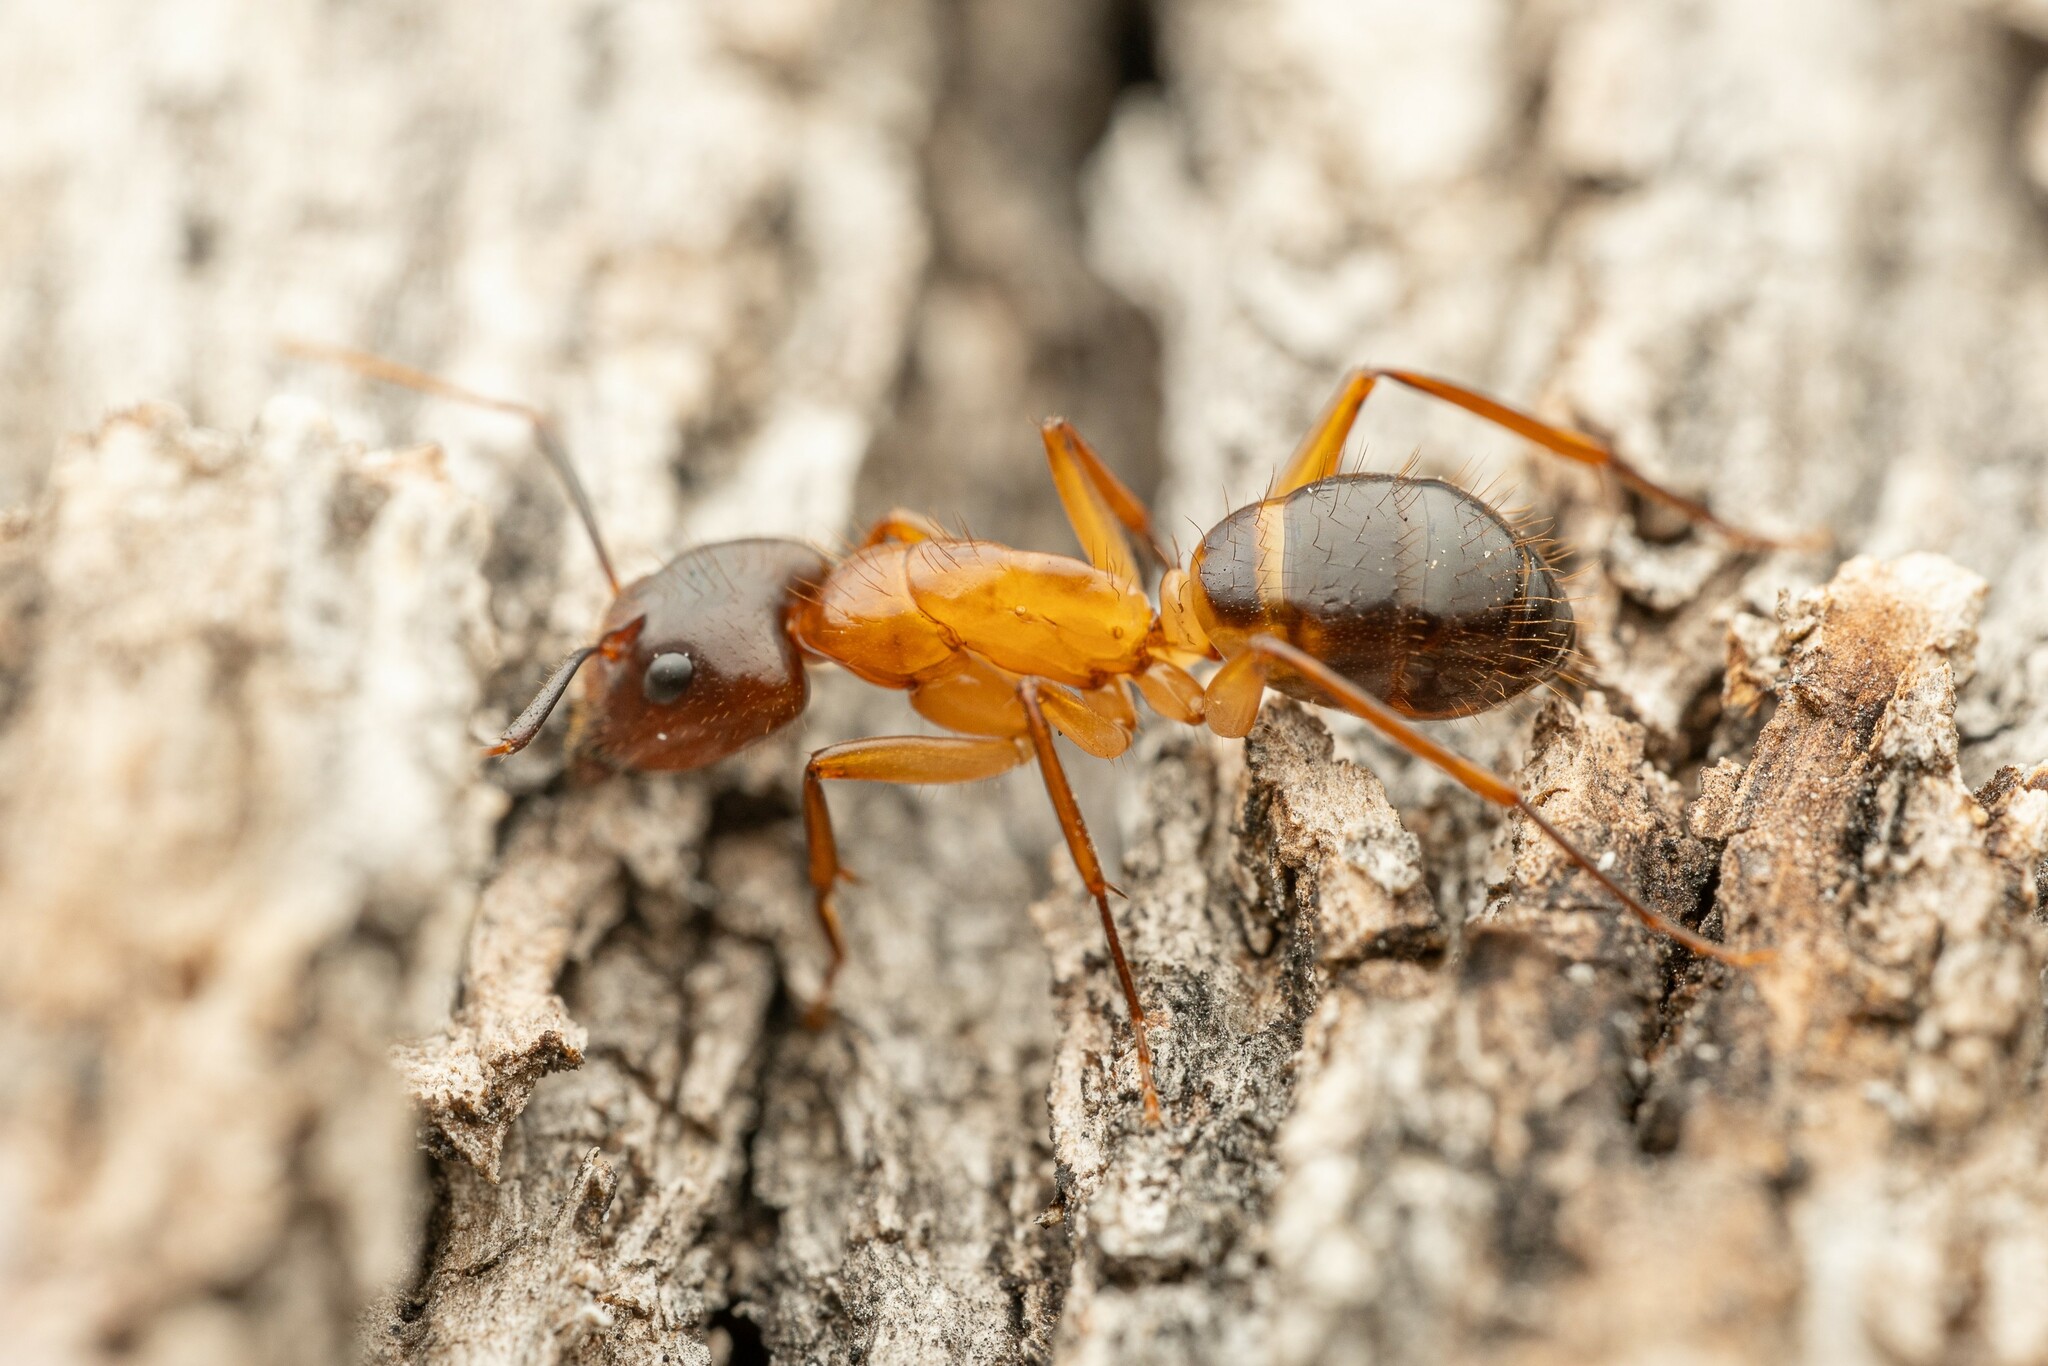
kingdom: Animalia
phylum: Arthropoda
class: Insecta
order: Hymenoptera
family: Formicidae
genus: Camponotus
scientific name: Camponotus vafer
